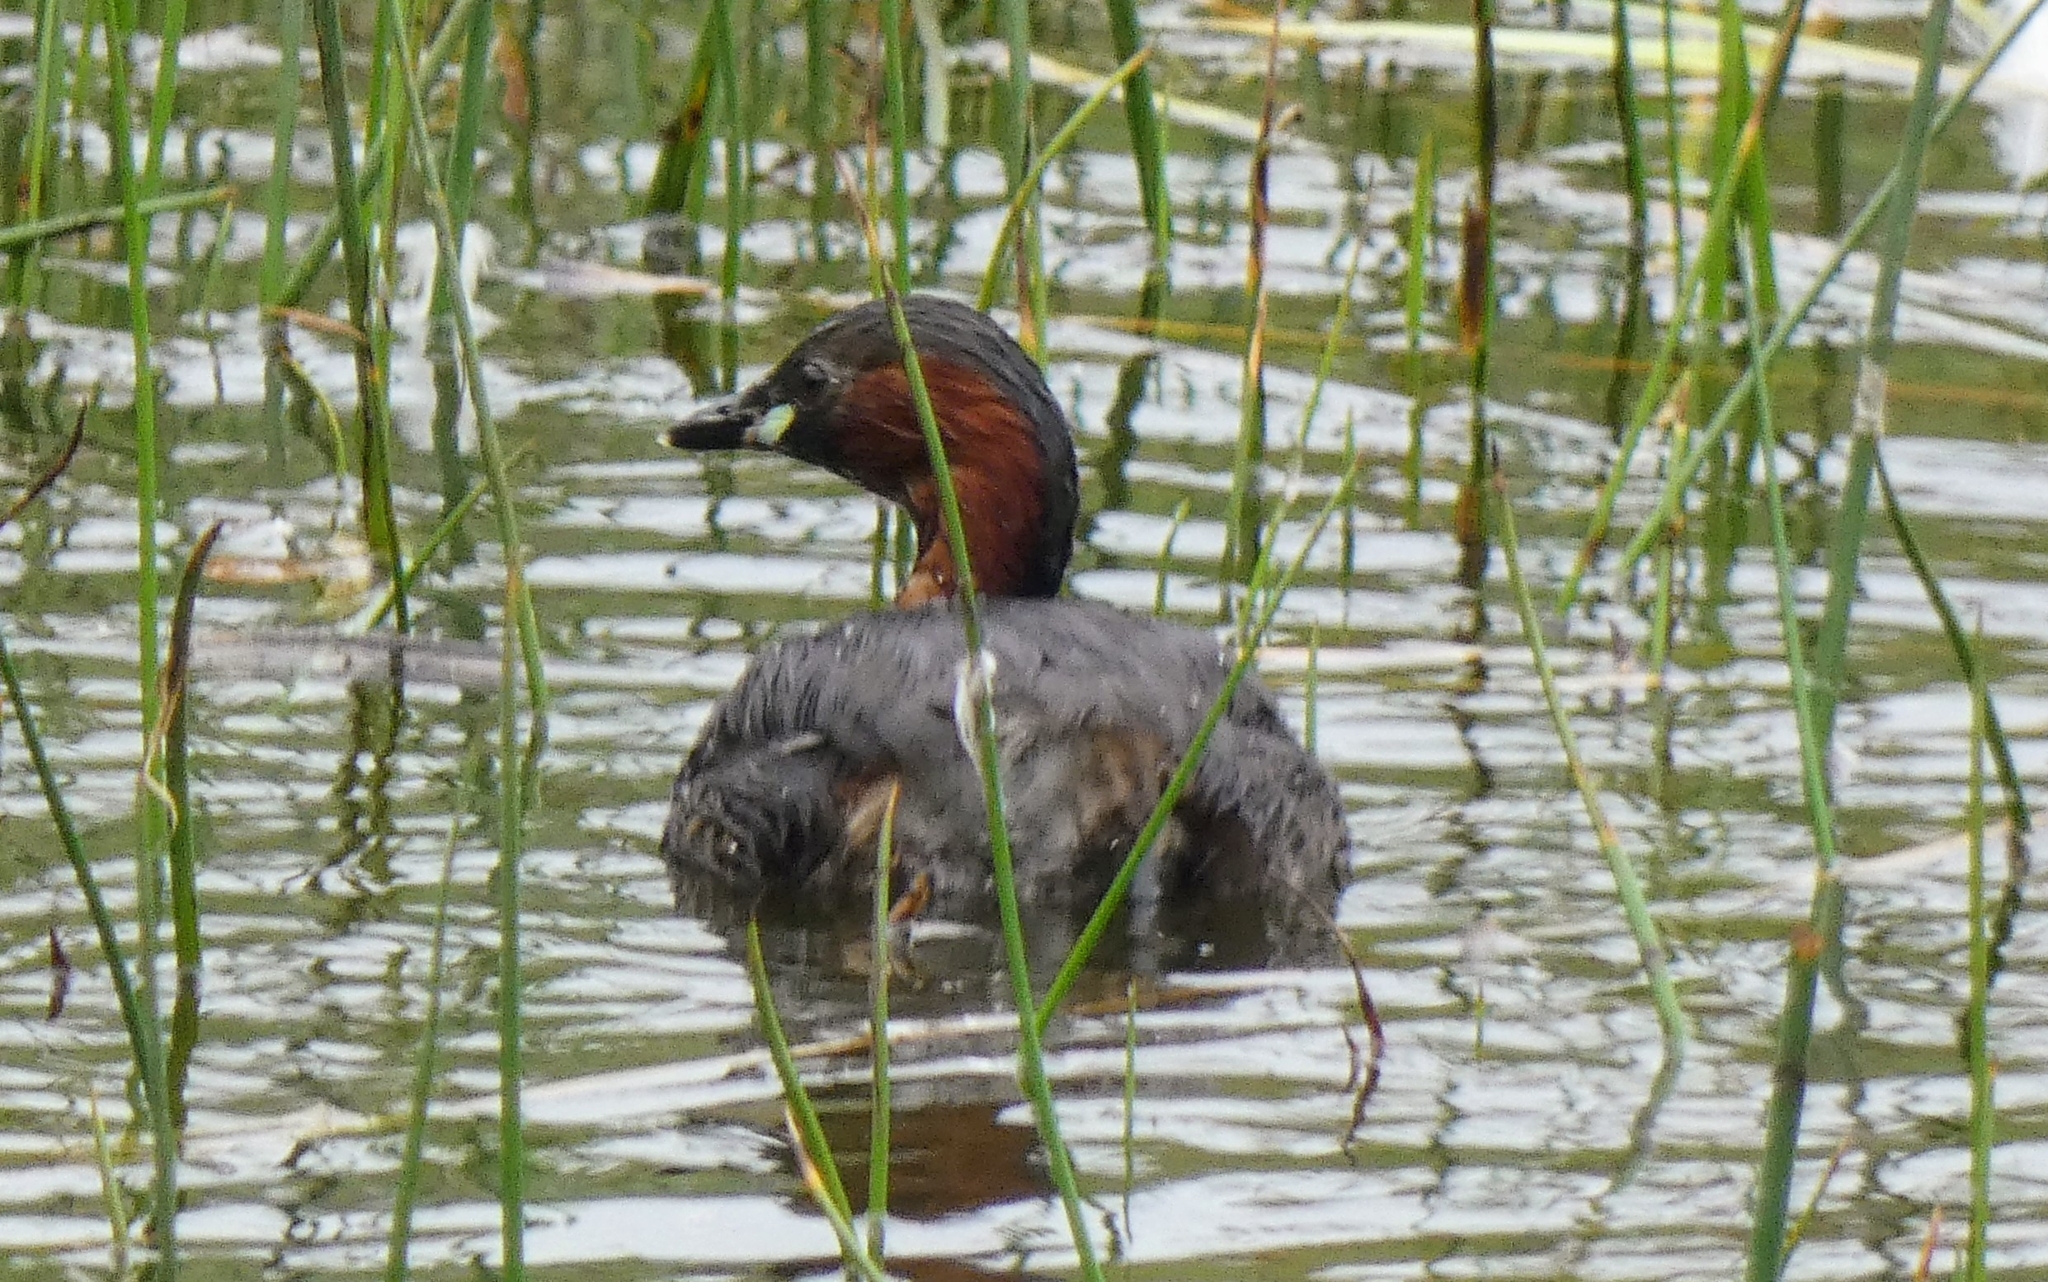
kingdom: Animalia
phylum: Chordata
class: Aves
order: Podicipediformes
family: Podicipedidae
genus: Tachybaptus
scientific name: Tachybaptus ruficollis
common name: Little grebe
